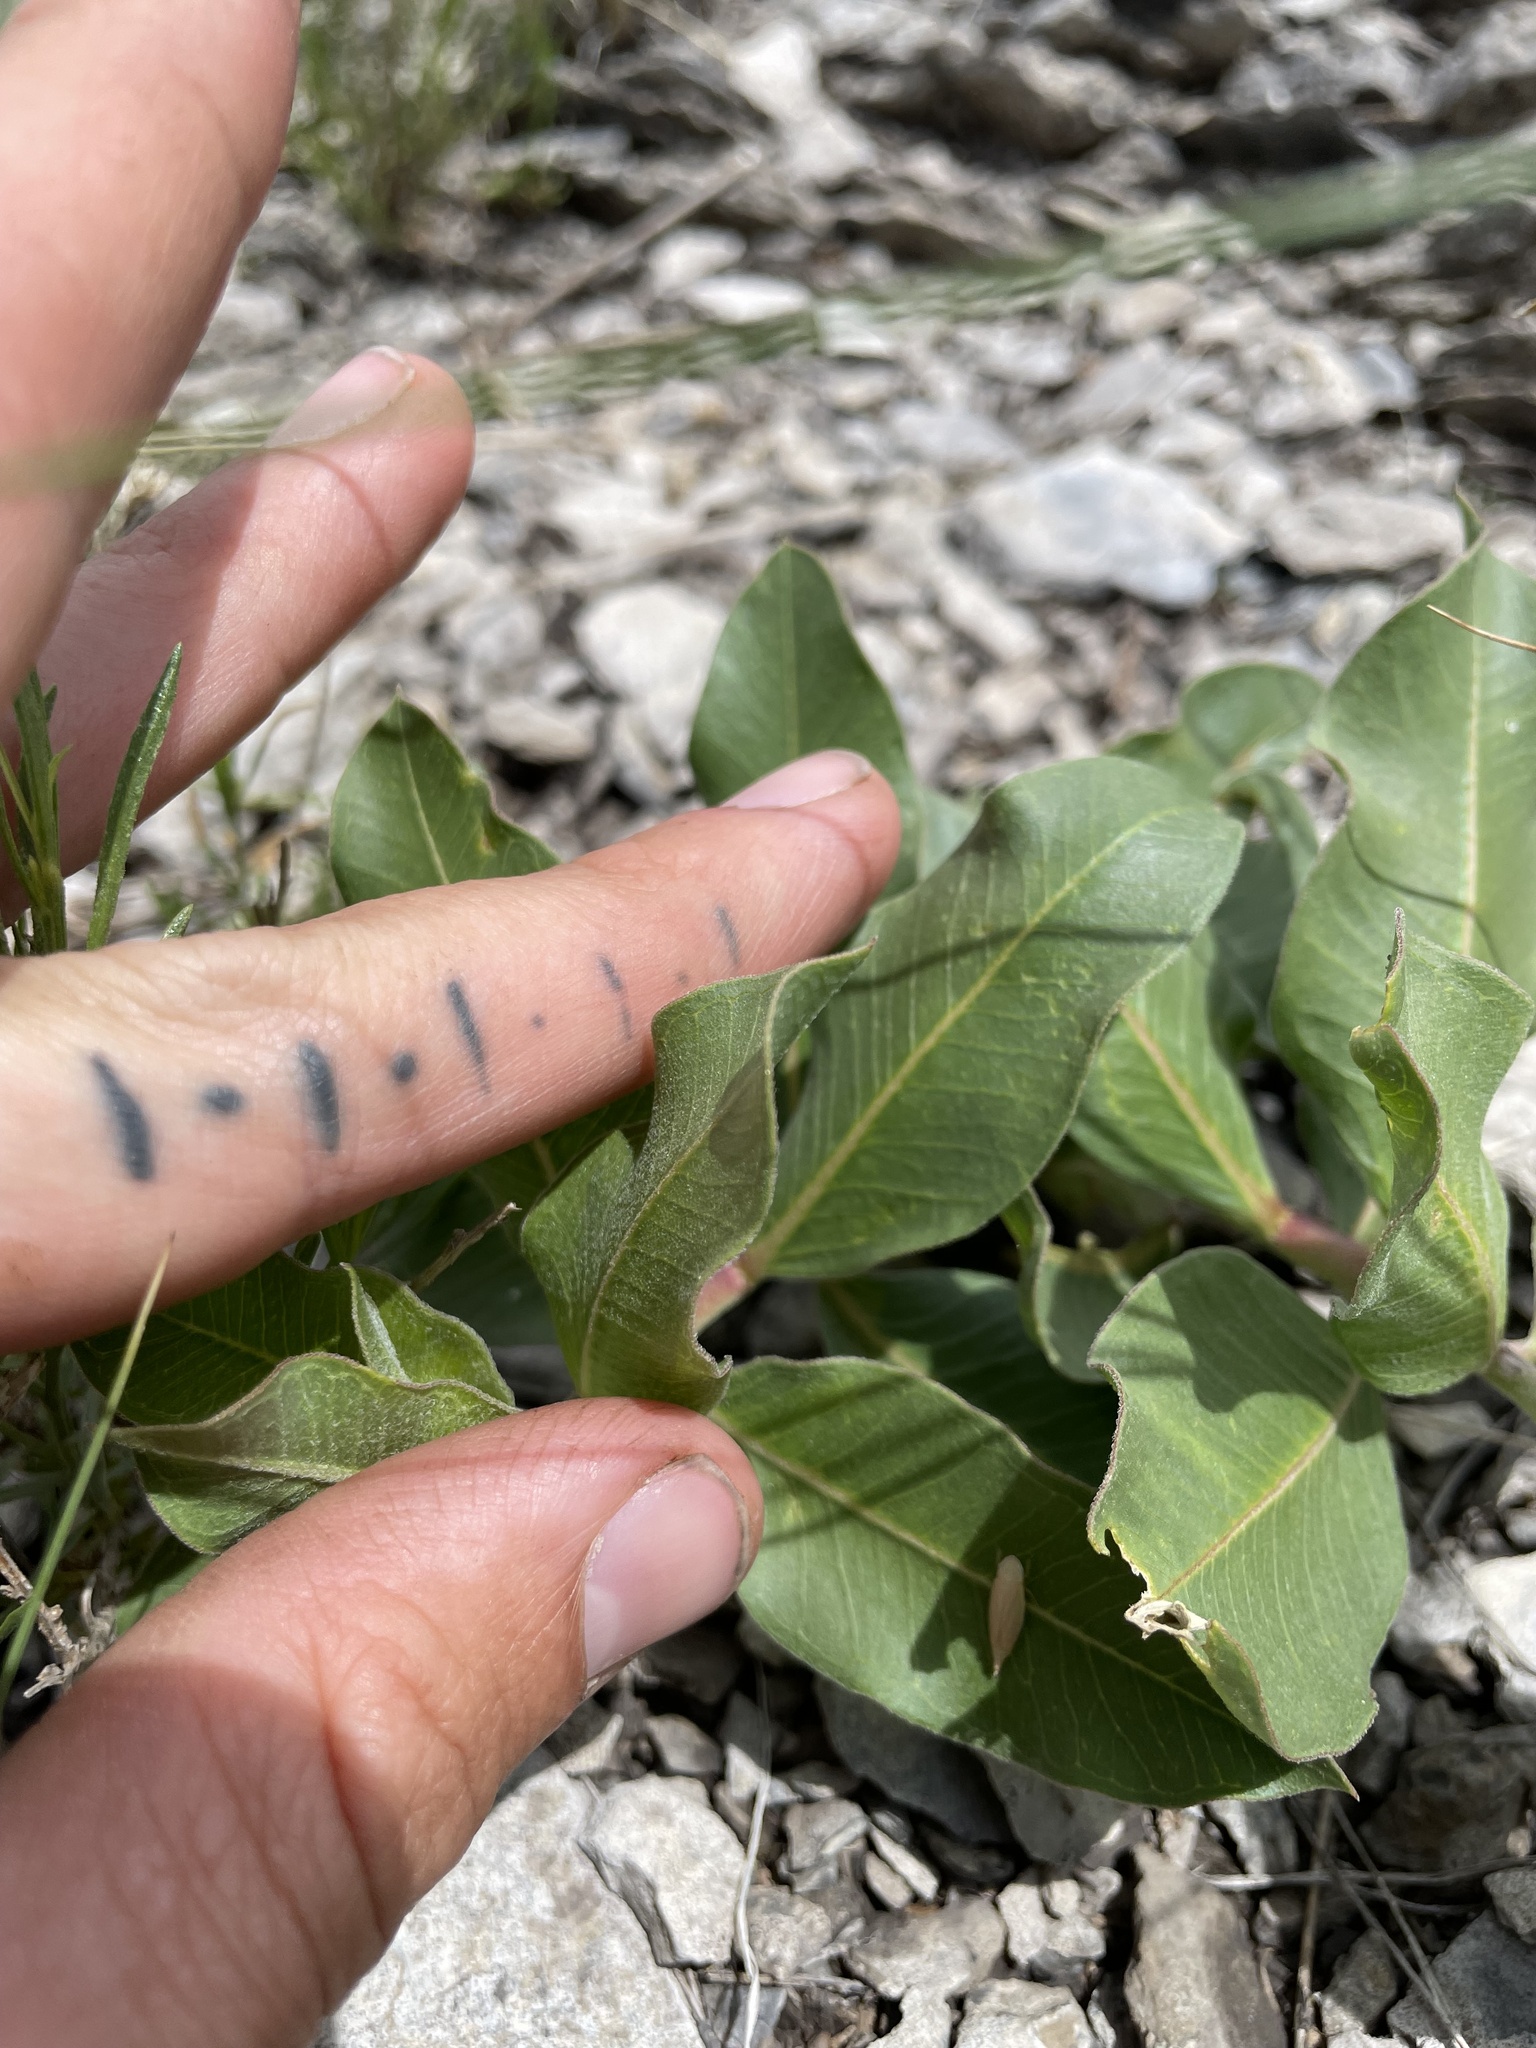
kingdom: Plantae
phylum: Tracheophyta
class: Magnoliopsida
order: Gentianales
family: Apocynaceae
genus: Asclepias
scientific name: Asclepias viridiflora
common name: Green comet milkweed
